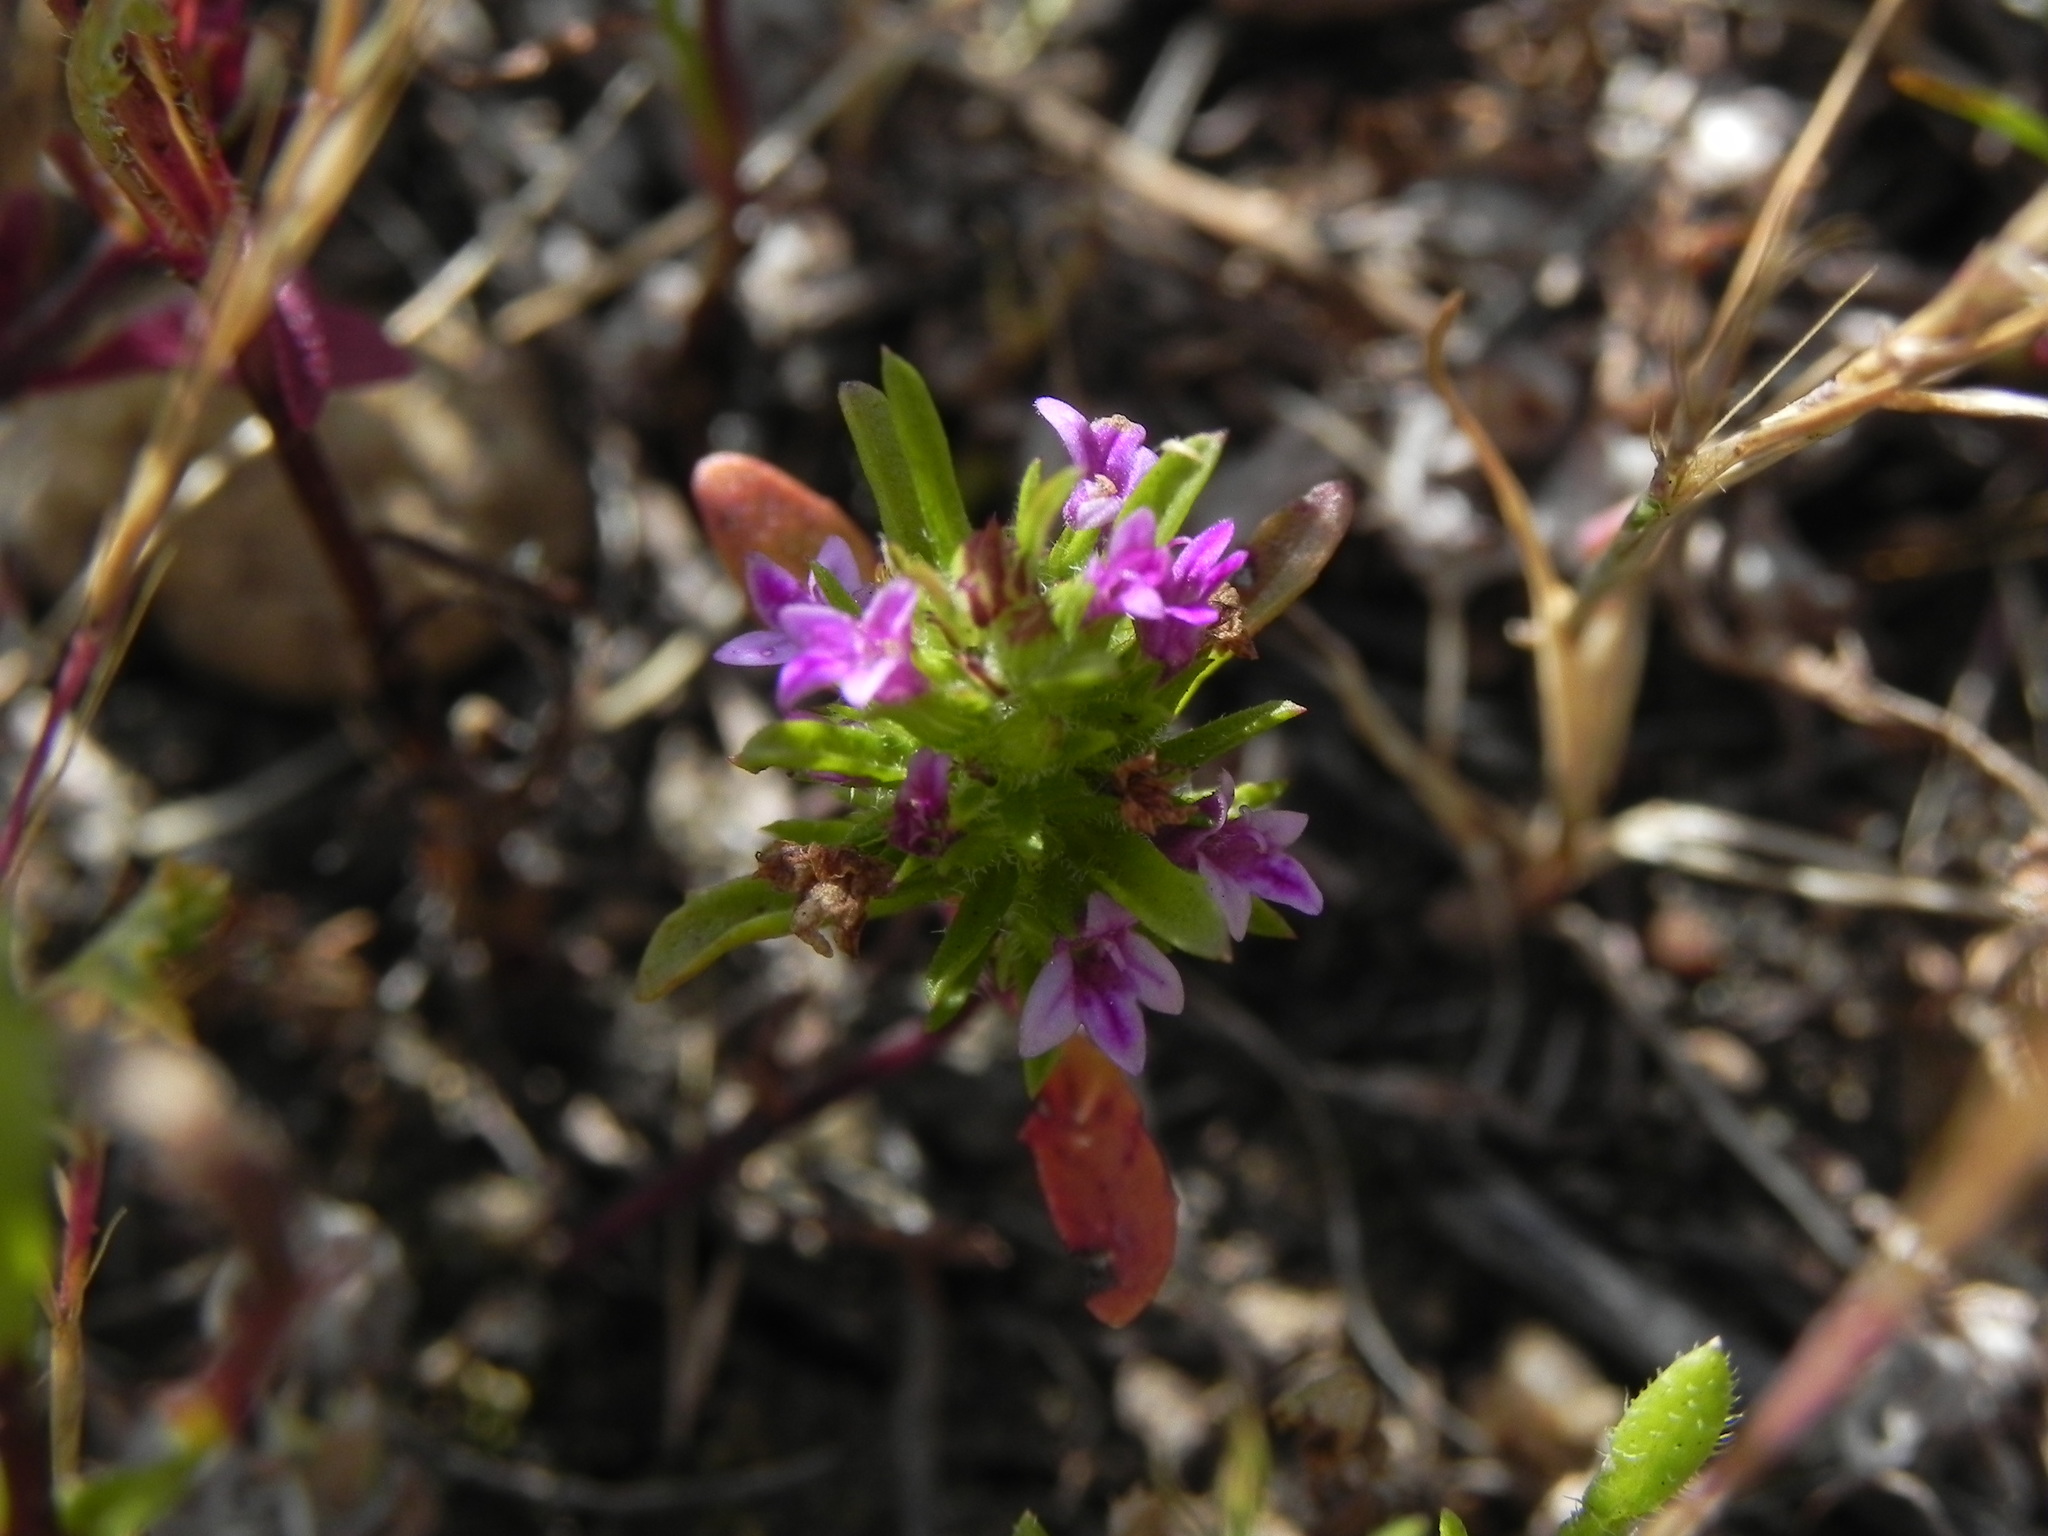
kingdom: Plantae
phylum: Tracheophyta
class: Magnoliopsida
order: Lamiales
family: Lamiaceae
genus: Pogogyne
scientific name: Pogogyne nudiuscula
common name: Otay mesa-mint
